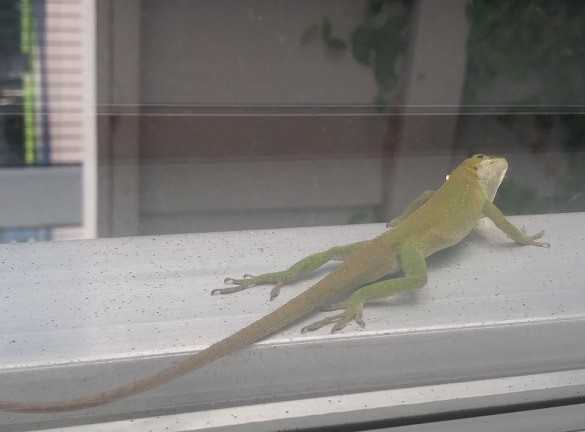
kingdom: Animalia
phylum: Chordata
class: Squamata
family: Dactyloidae
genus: Anolis
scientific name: Anolis carolinensis
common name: Green anole
